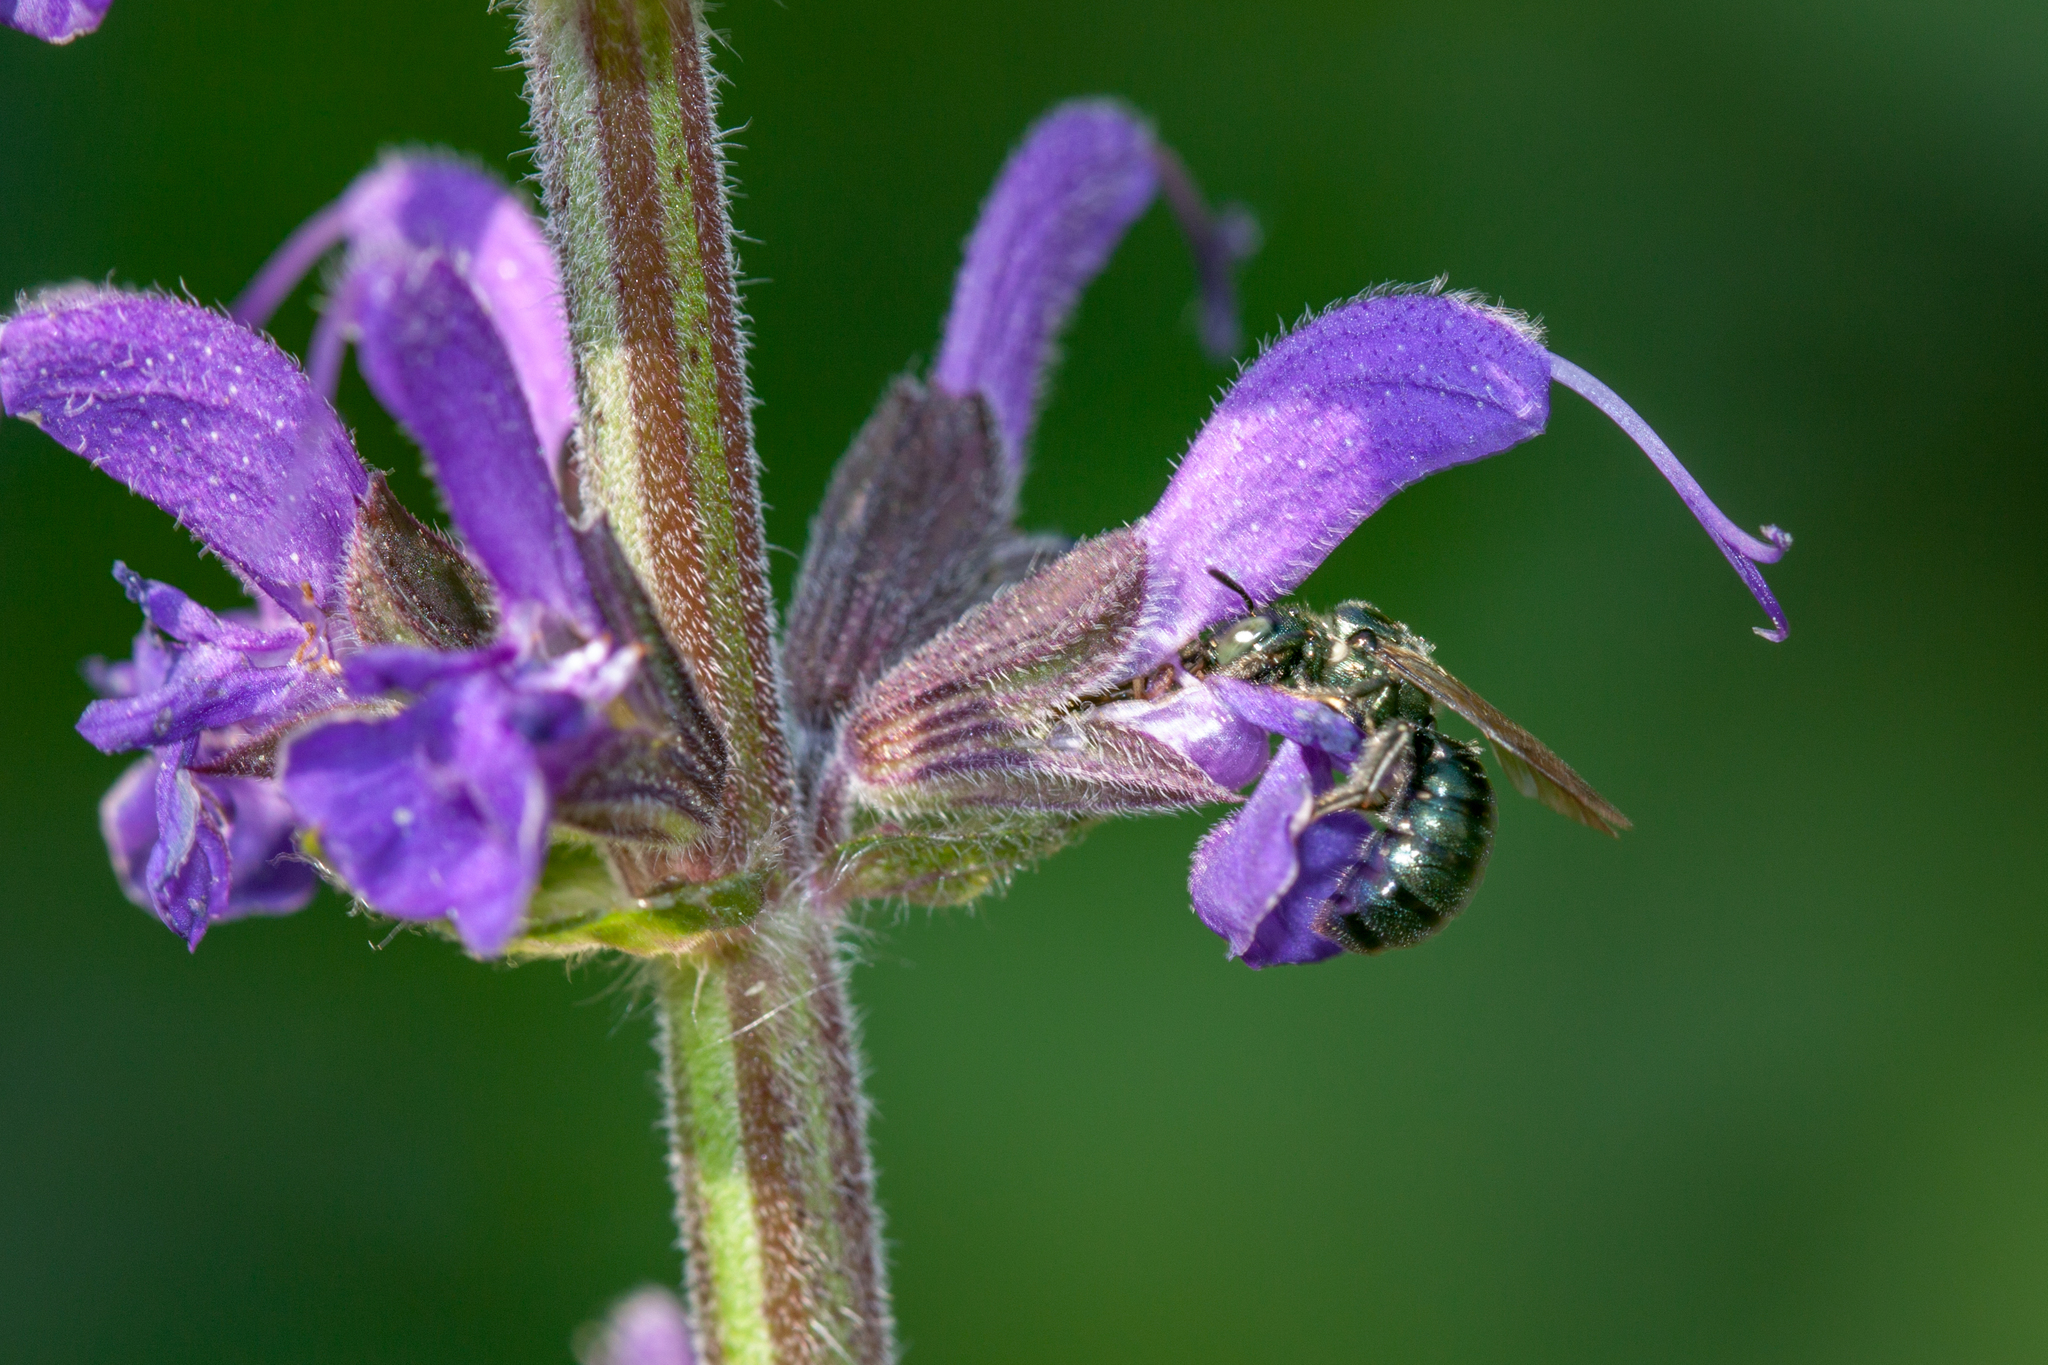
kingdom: Animalia
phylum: Arthropoda
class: Insecta
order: Hymenoptera
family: Apidae
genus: Zadontomerus
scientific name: Zadontomerus
